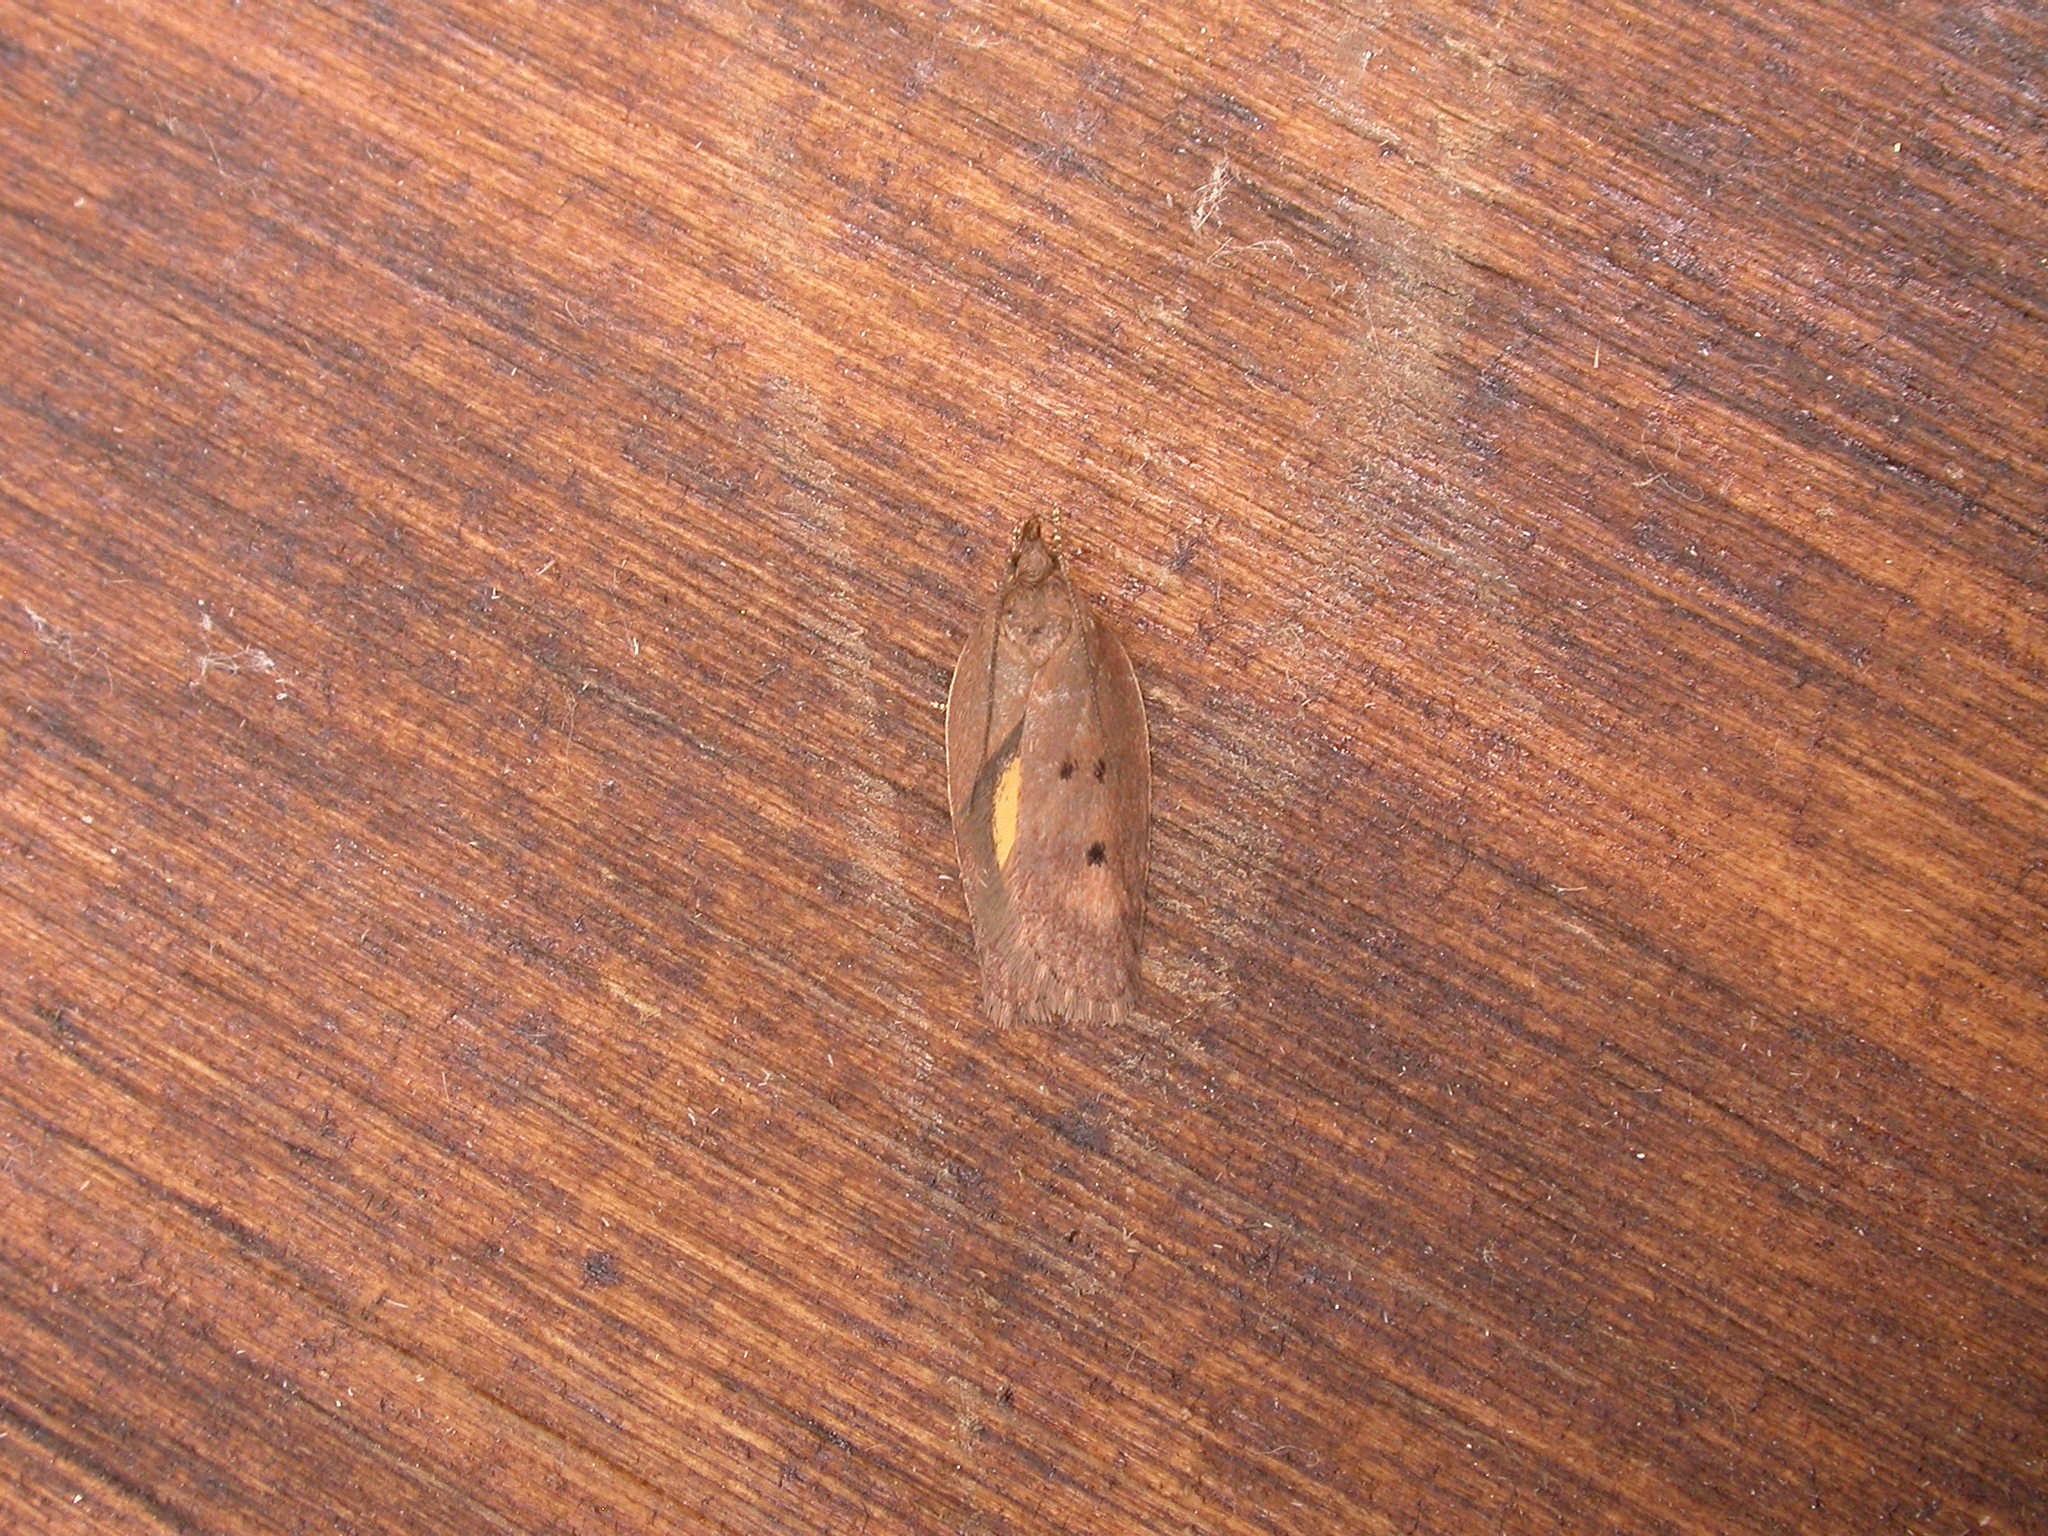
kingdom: Animalia
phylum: Arthropoda
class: Insecta
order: Lepidoptera
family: Depressariidae
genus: Doleromima
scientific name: Doleromima hypoxantha
